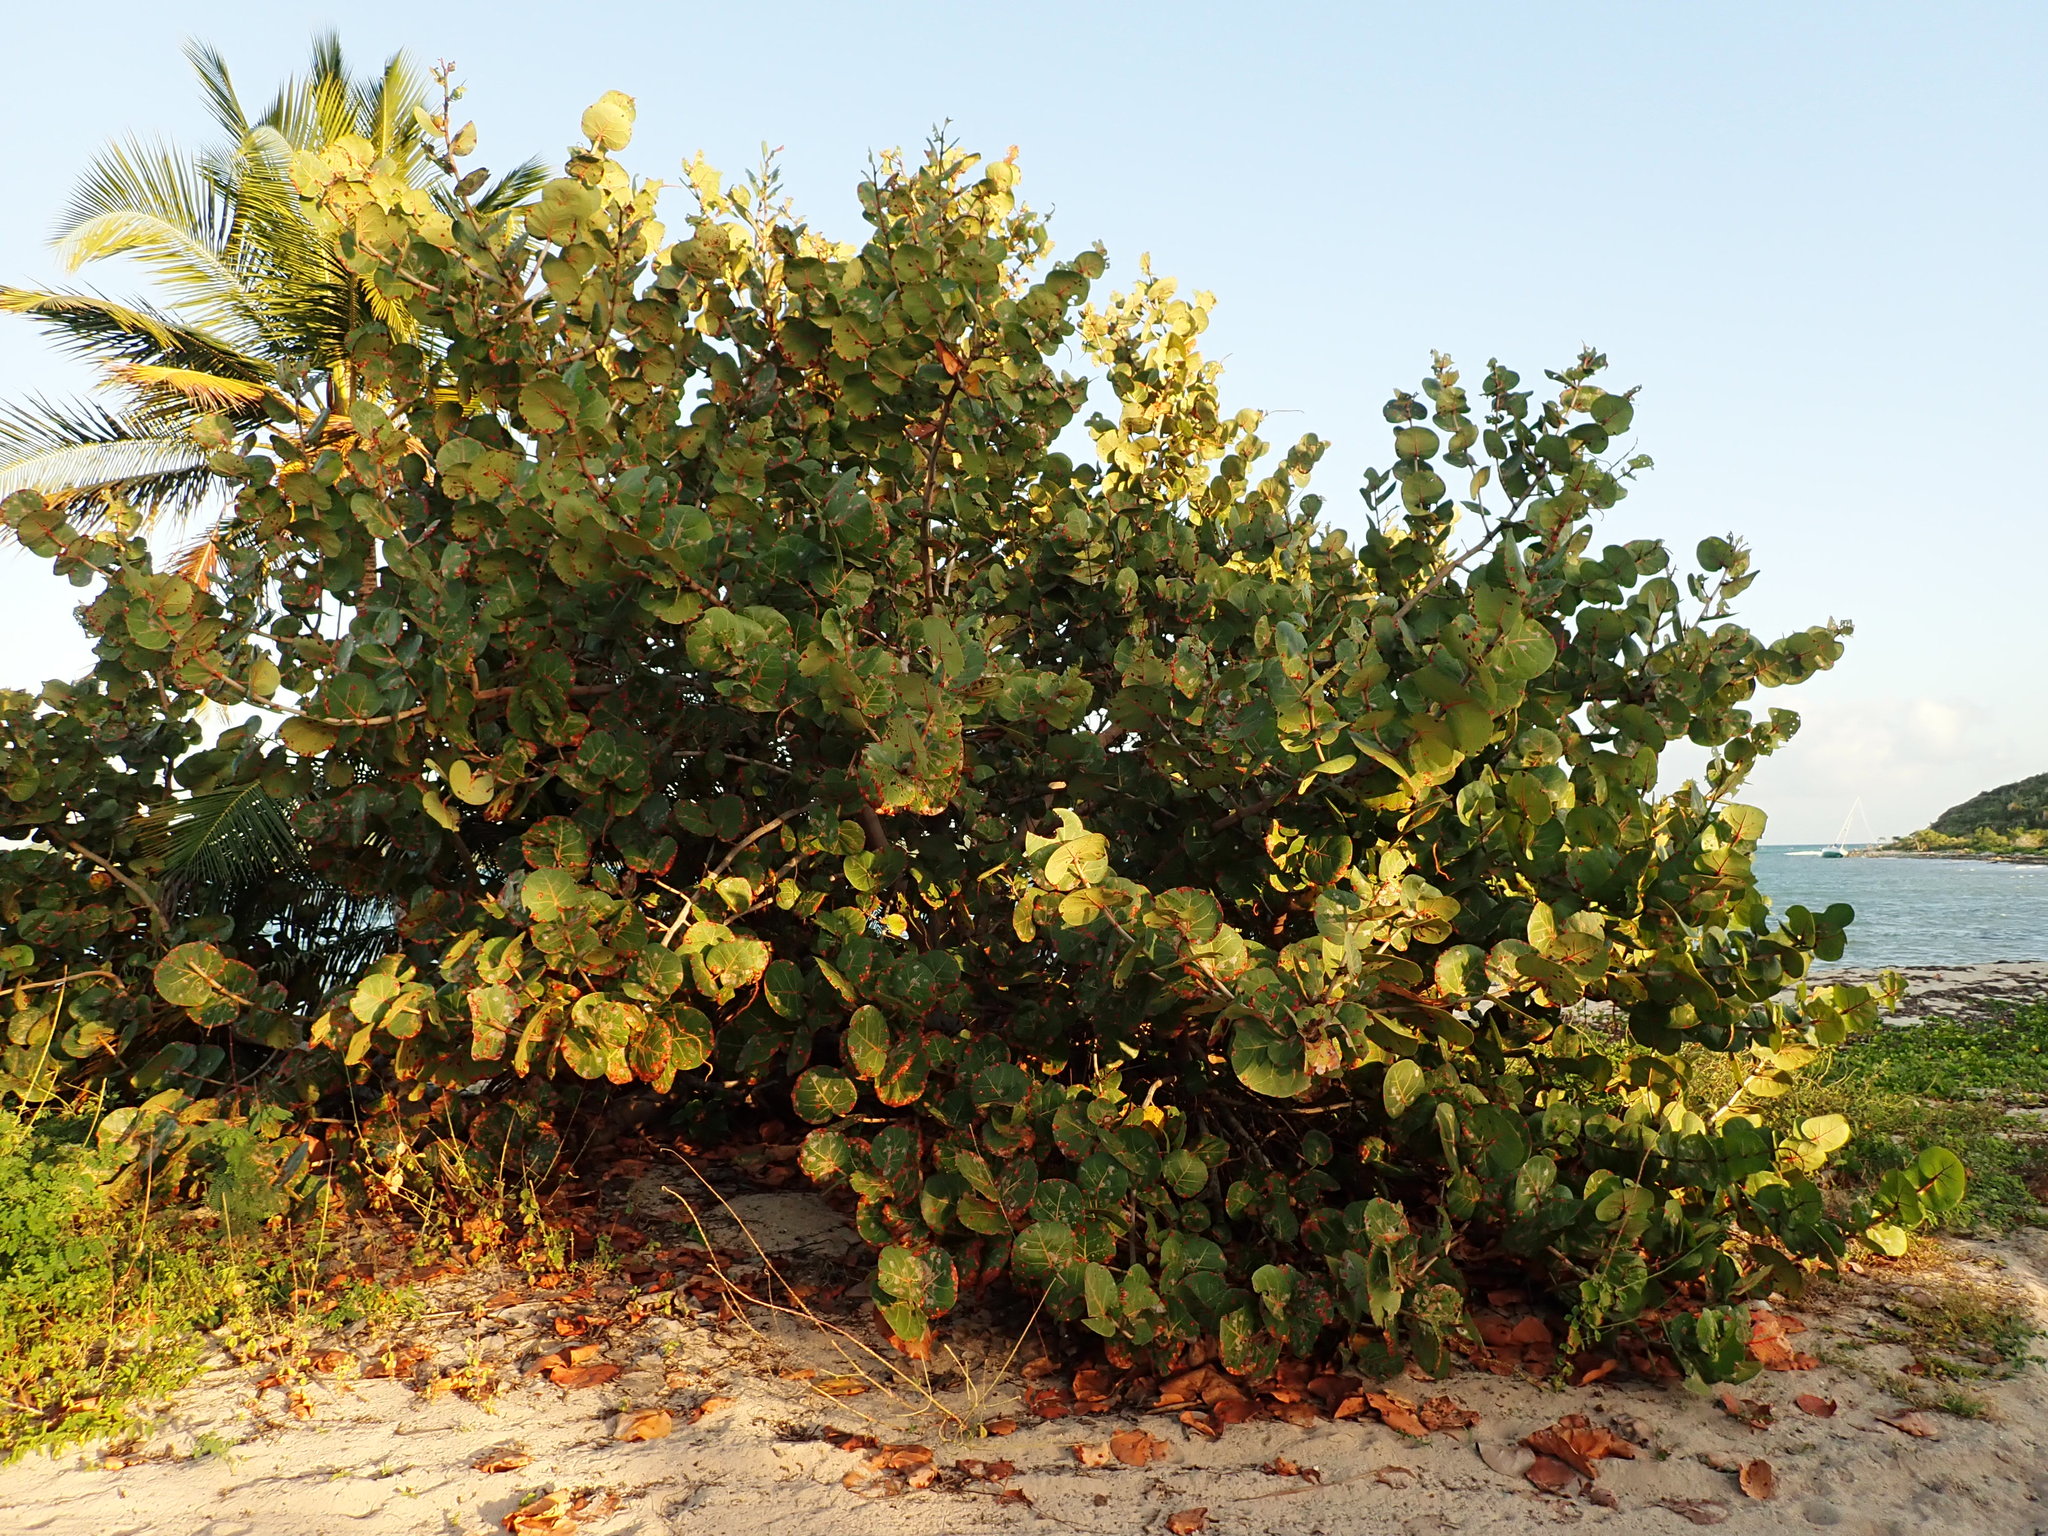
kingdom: Plantae
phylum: Tracheophyta
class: Magnoliopsida
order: Caryophyllales
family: Polygonaceae
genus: Coccoloba
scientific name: Coccoloba uvifera
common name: Seagrape
